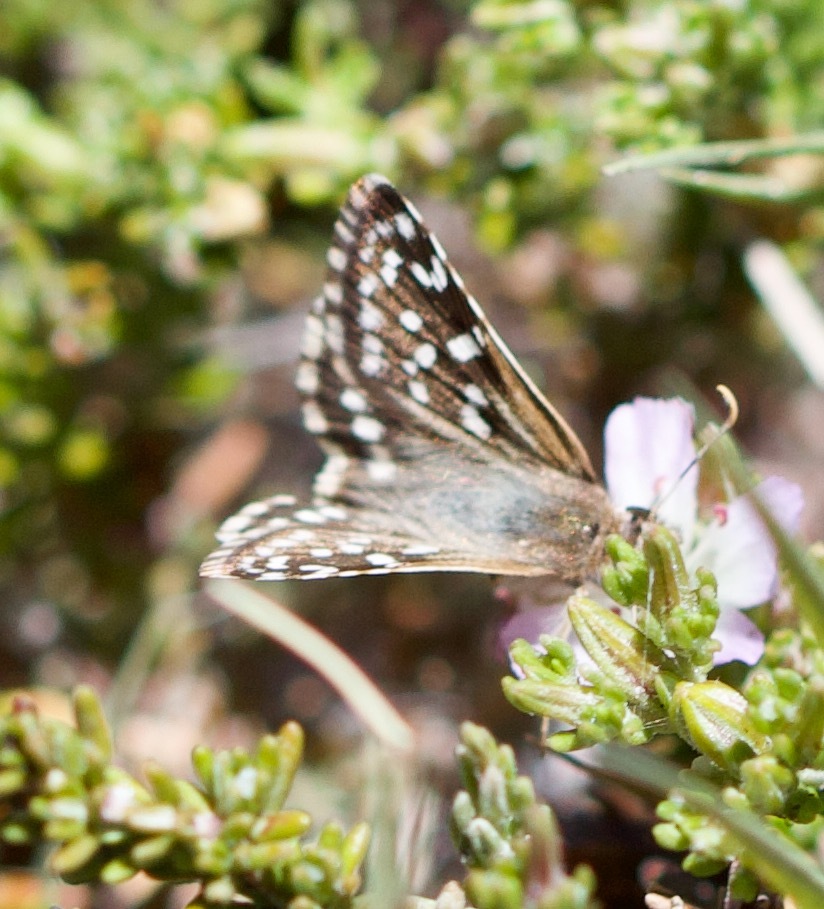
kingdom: Animalia
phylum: Arthropoda
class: Insecta
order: Lepidoptera
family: Hesperiidae
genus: Chirgus
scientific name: Chirgus fides
